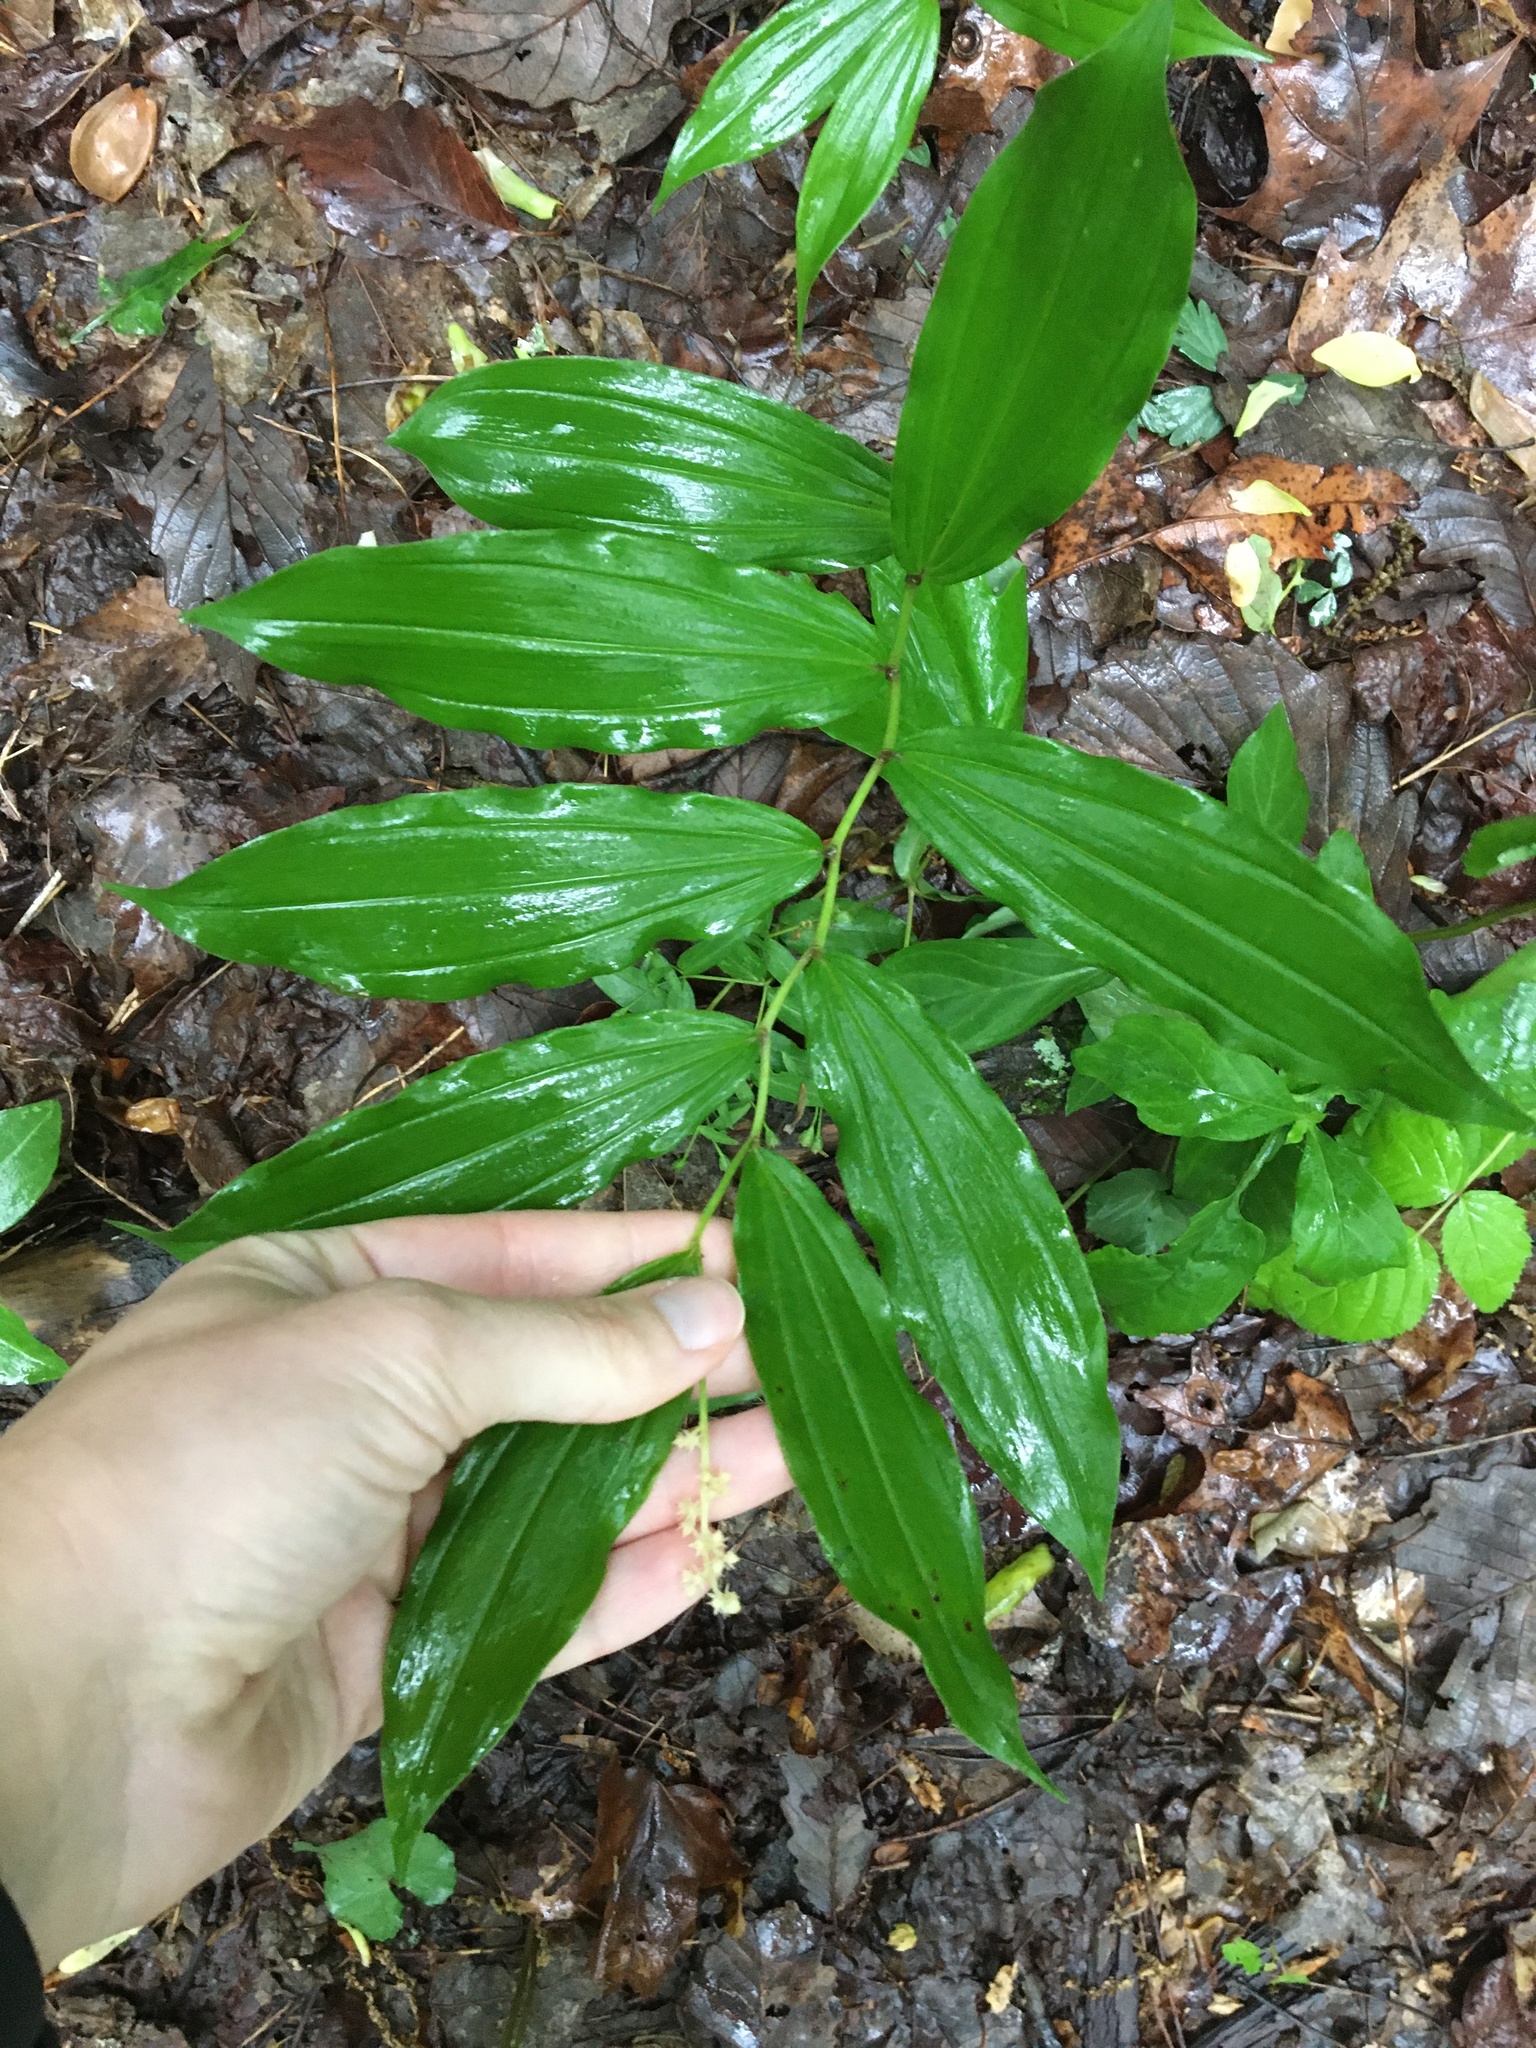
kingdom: Plantae
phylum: Tracheophyta
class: Liliopsida
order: Asparagales
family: Asparagaceae
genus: Maianthemum
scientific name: Maianthemum racemosum
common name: False spikenard
